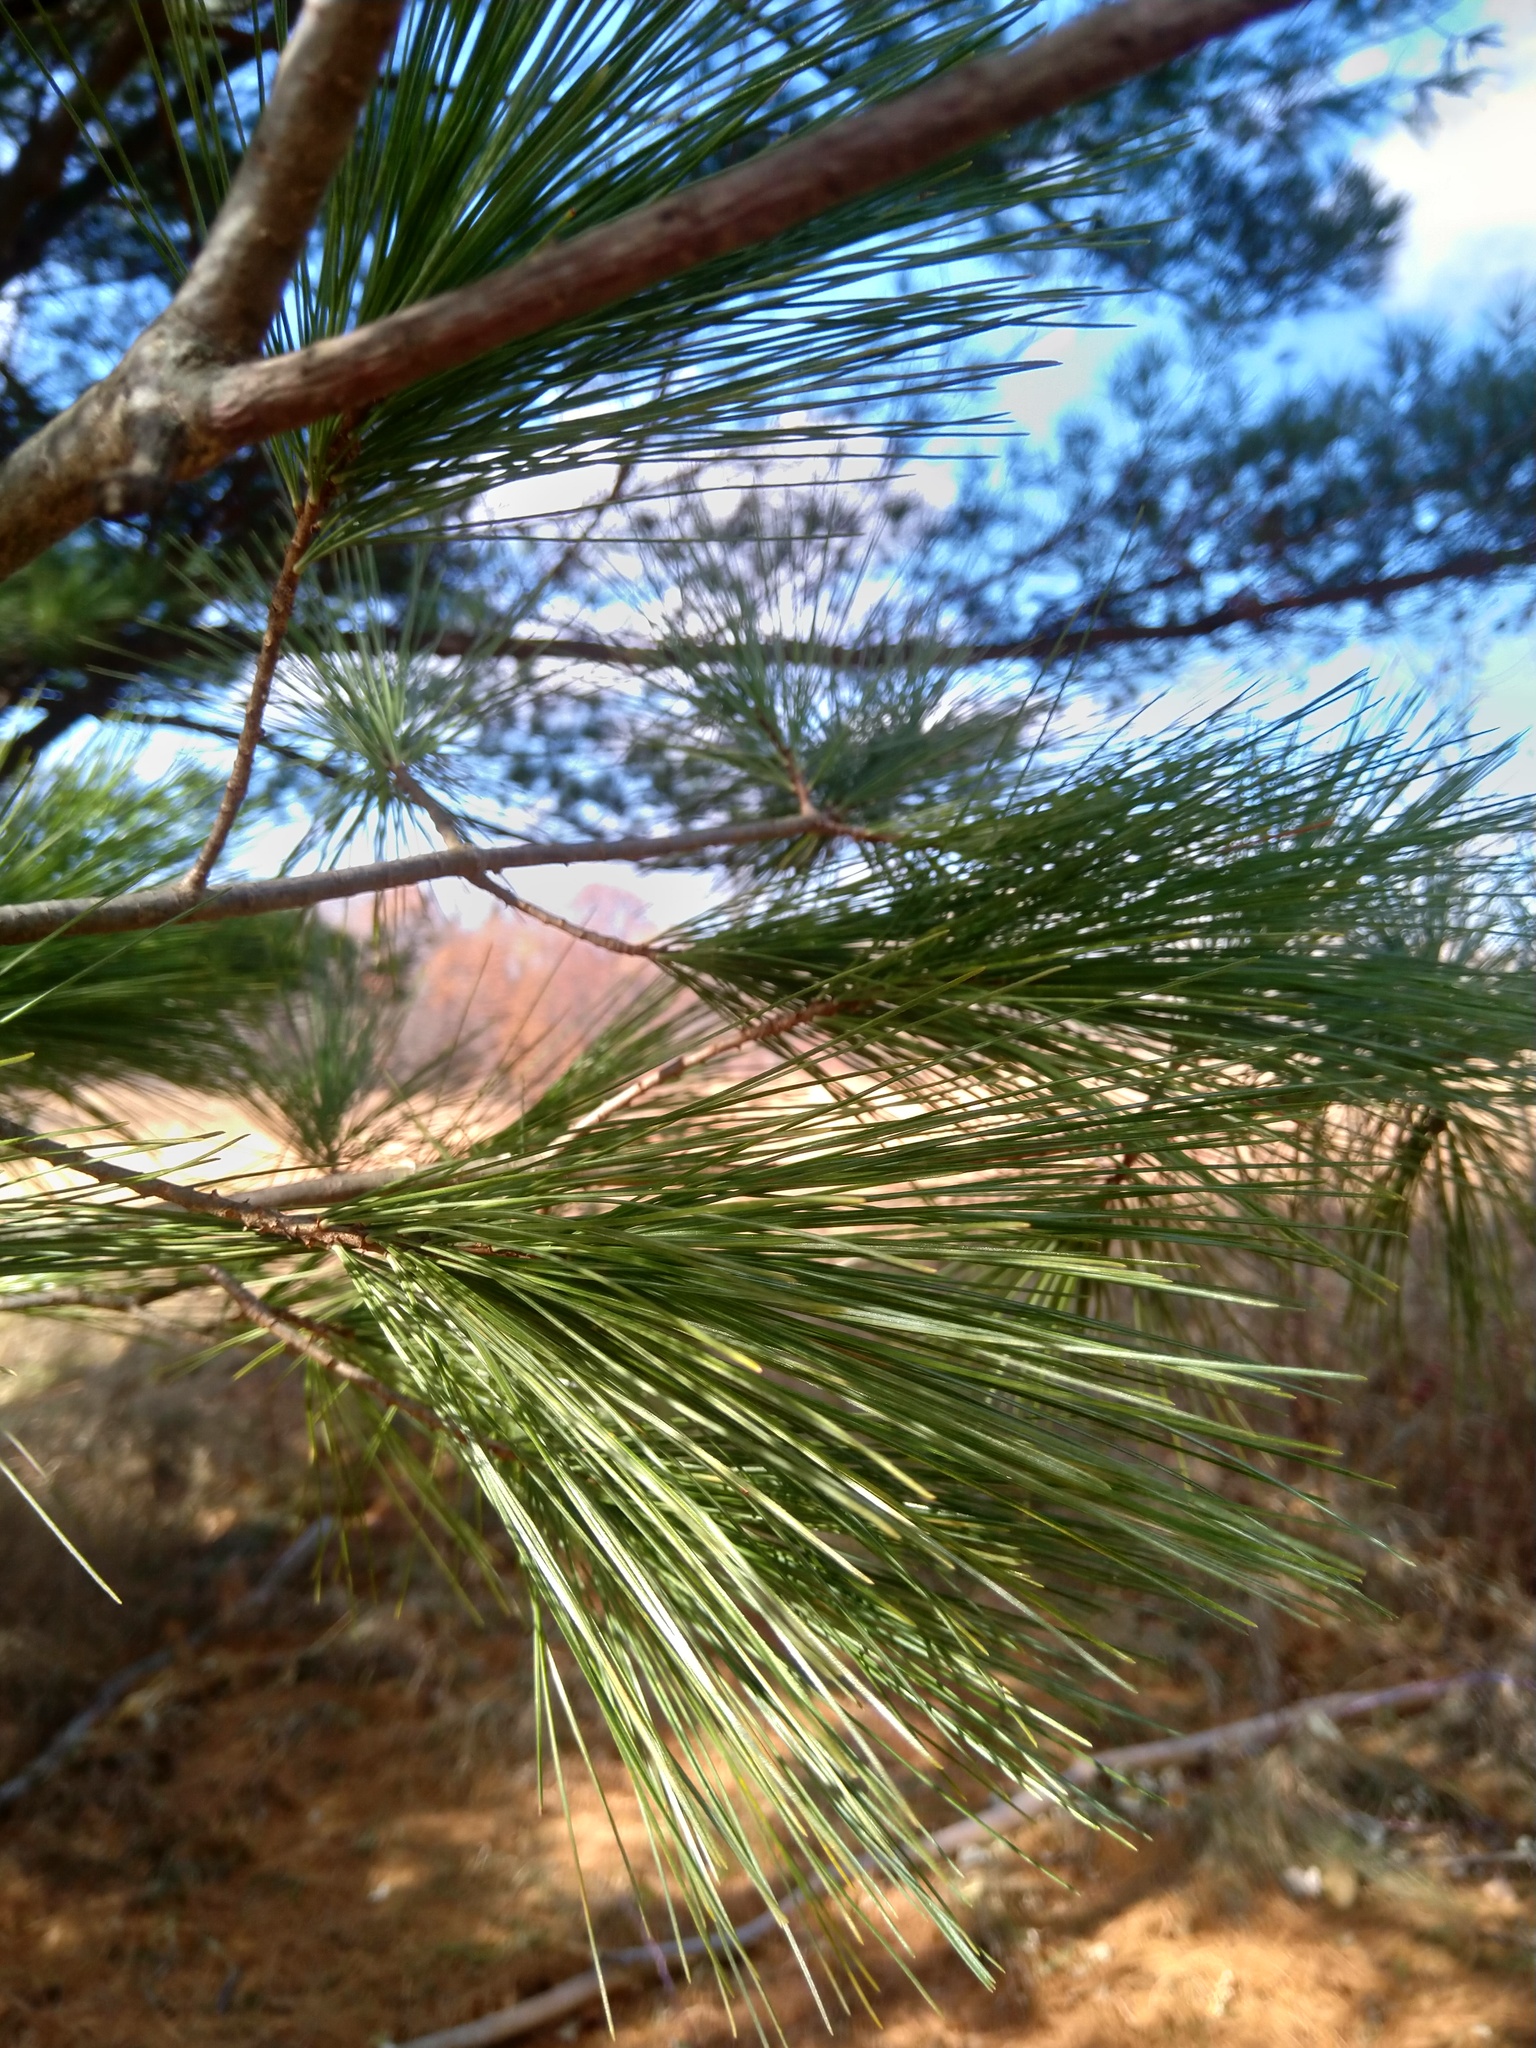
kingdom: Plantae
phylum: Tracheophyta
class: Pinopsida
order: Pinales
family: Pinaceae
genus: Pinus
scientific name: Pinus strobus
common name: Weymouth pine
